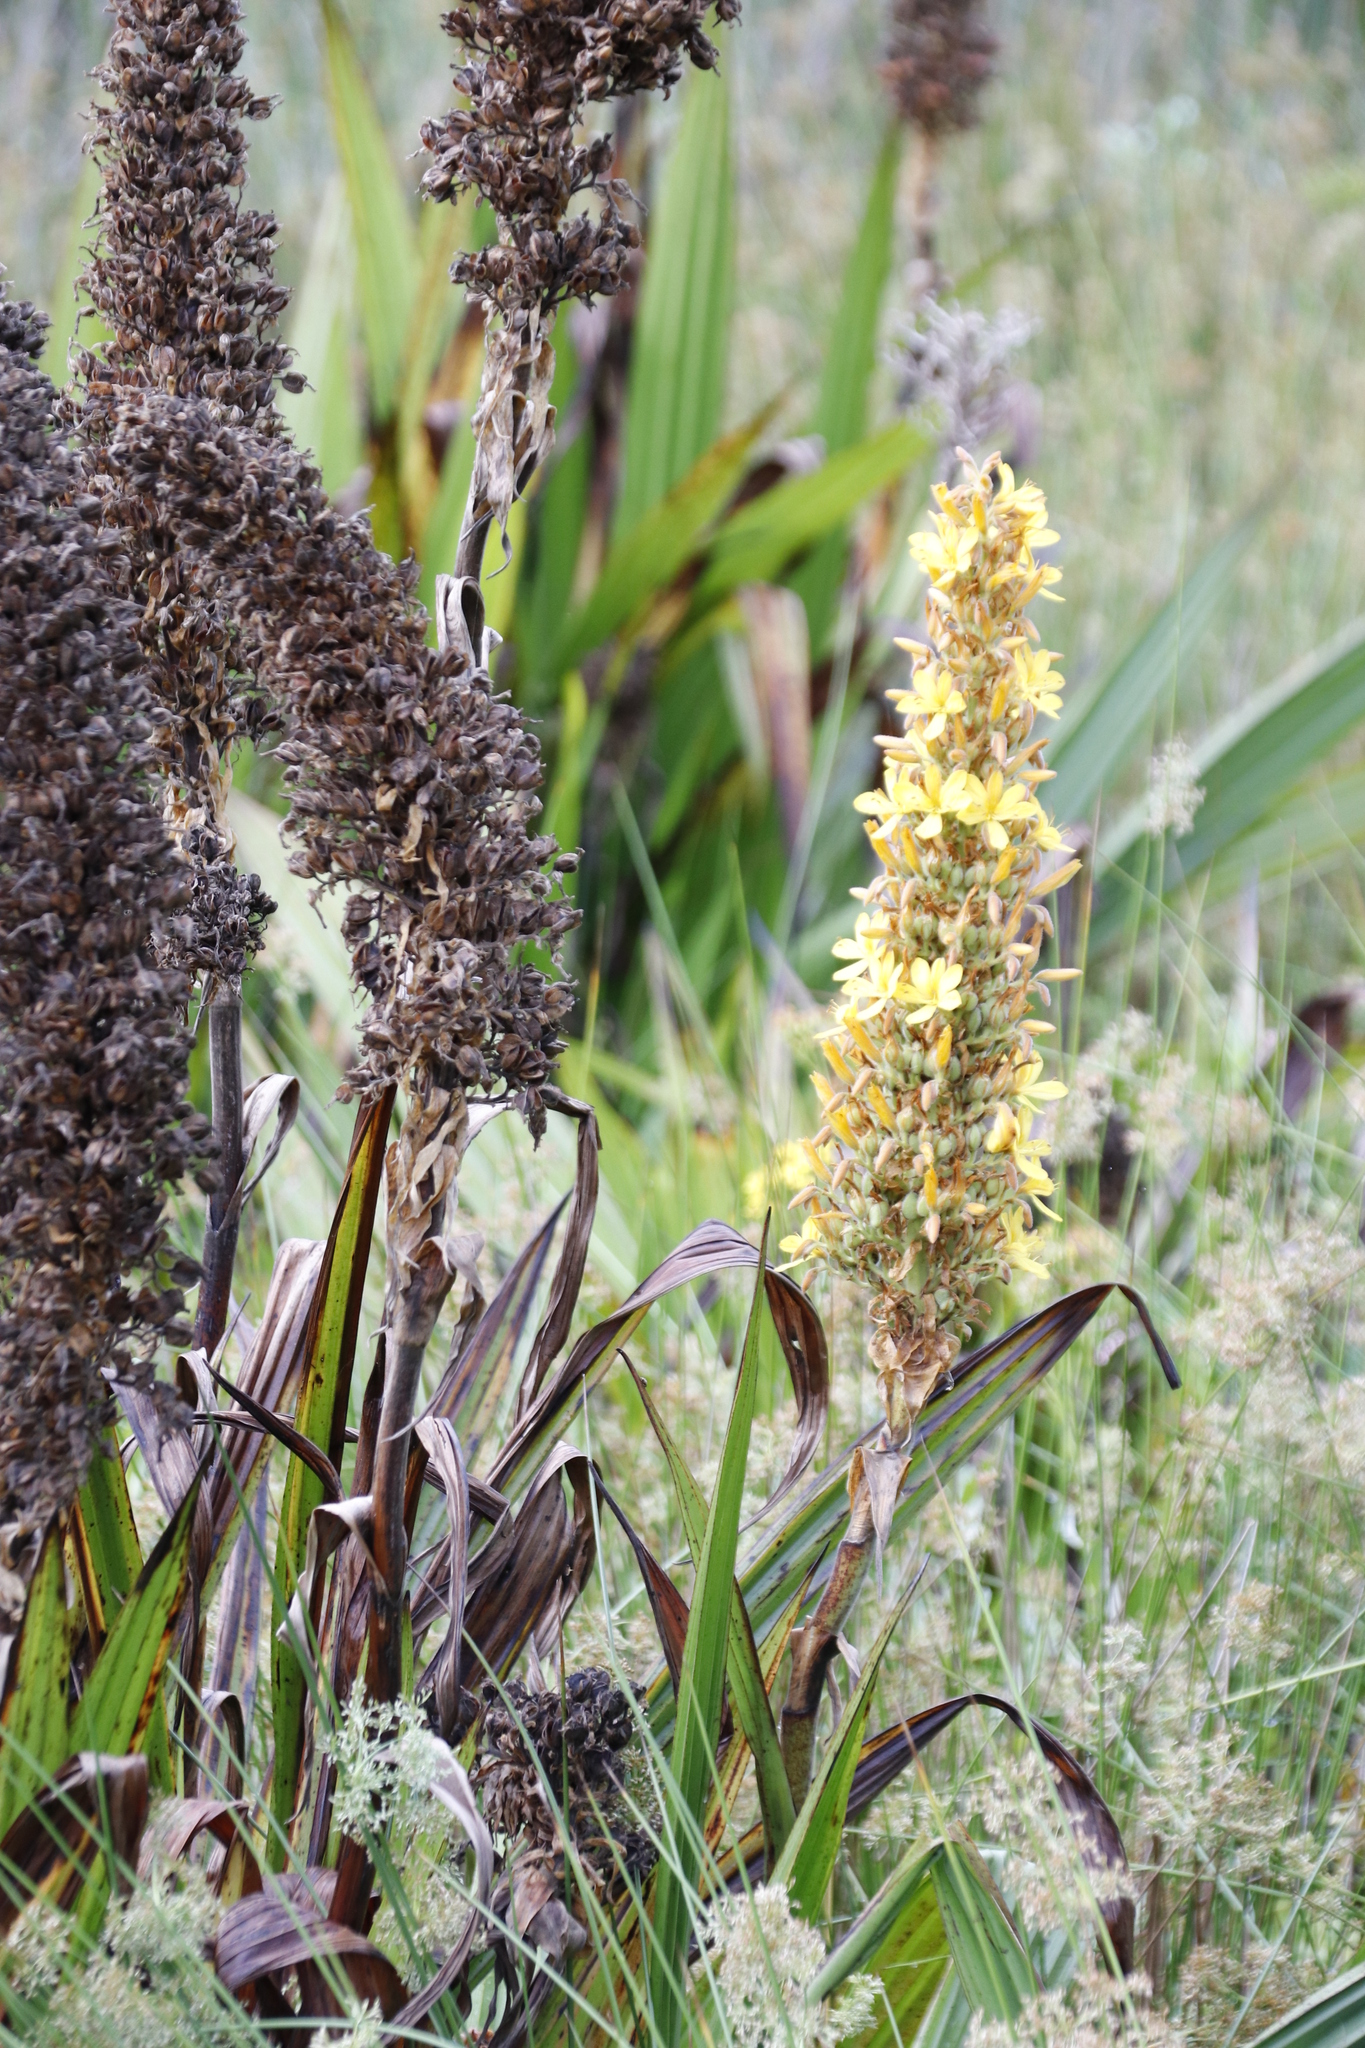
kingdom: Plantae
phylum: Tracheophyta
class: Liliopsida
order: Commelinales
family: Haemodoraceae
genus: Wachendorfia
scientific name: Wachendorfia thyrsiflora
